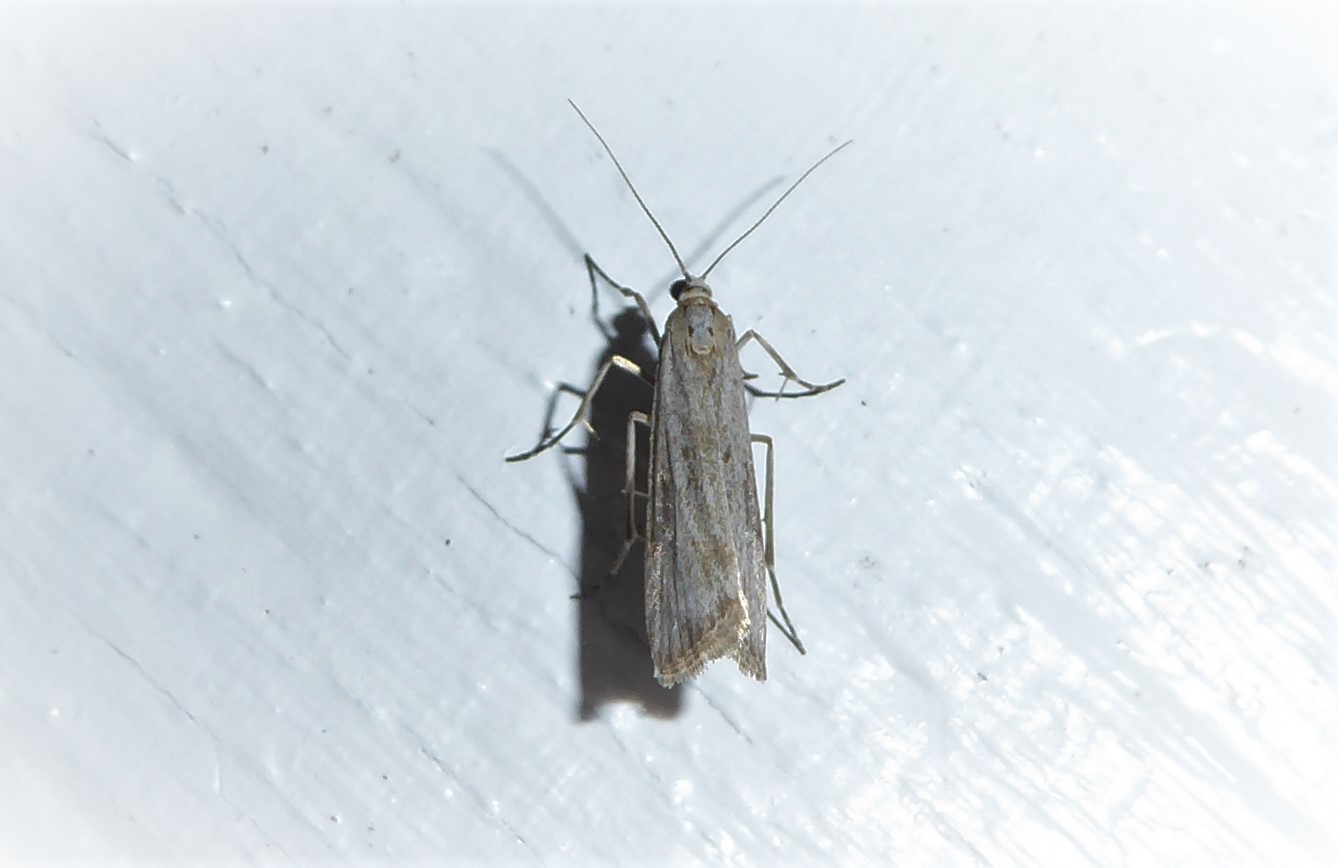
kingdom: Animalia
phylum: Arthropoda
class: Insecta
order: Lepidoptera
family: Crambidae
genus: Eudonia
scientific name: Eudonia leptalea
